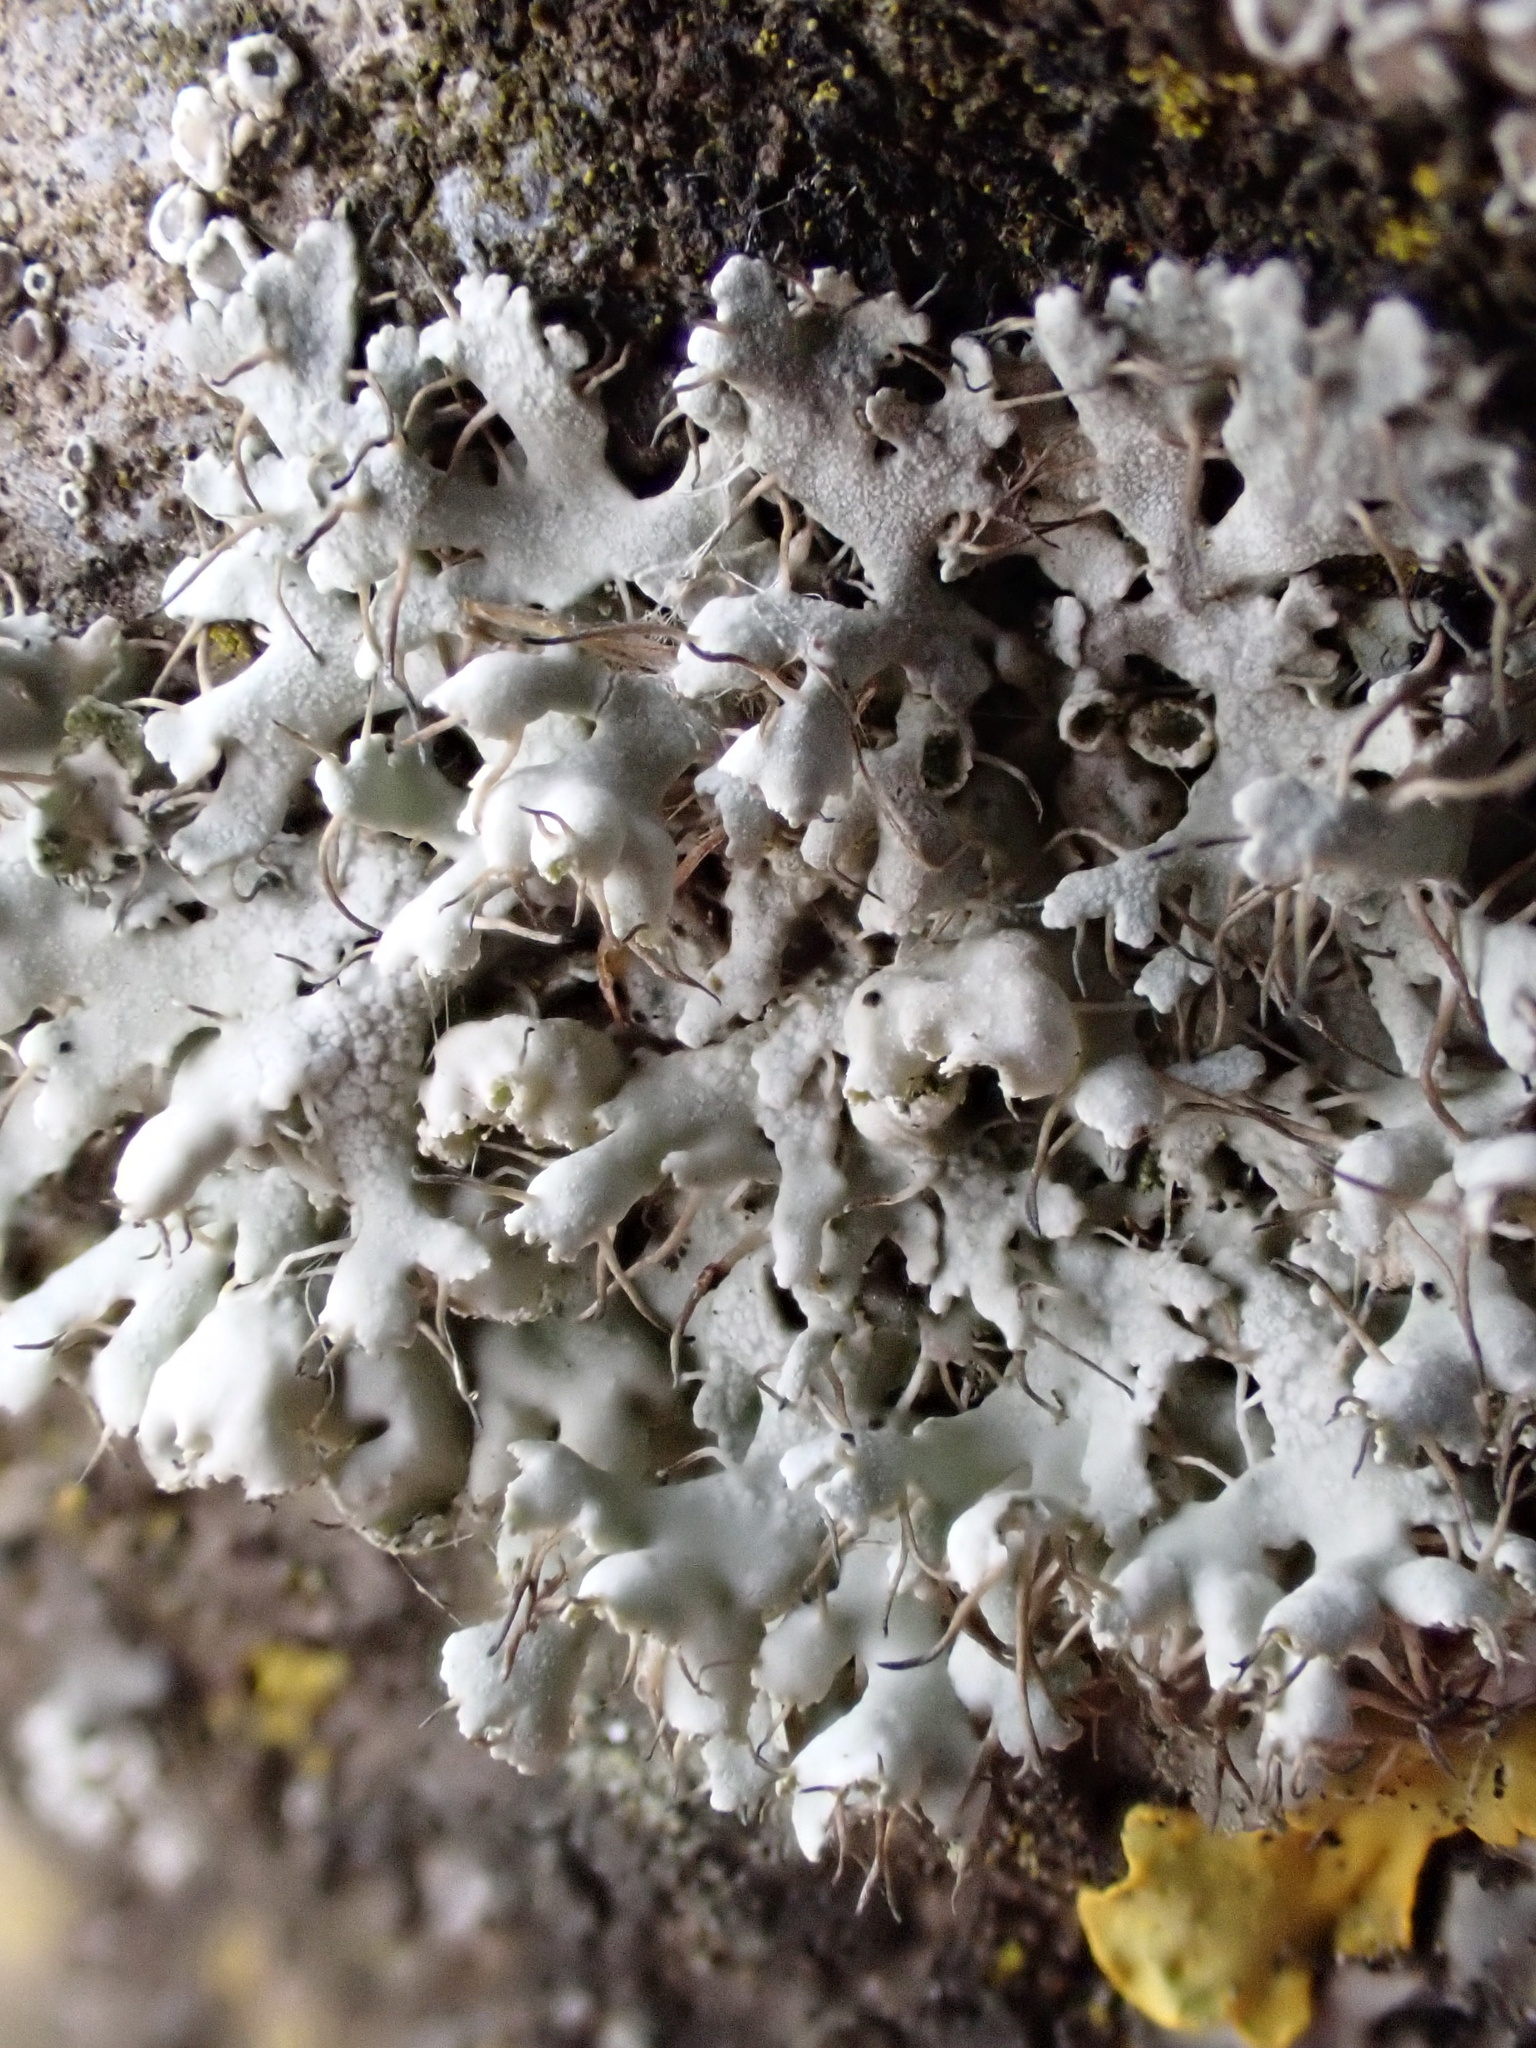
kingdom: Fungi
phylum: Ascomycota
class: Lecanoromycetes
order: Caliciales
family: Physciaceae
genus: Physcia
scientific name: Physcia adscendens
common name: Hooded rosette lichen
